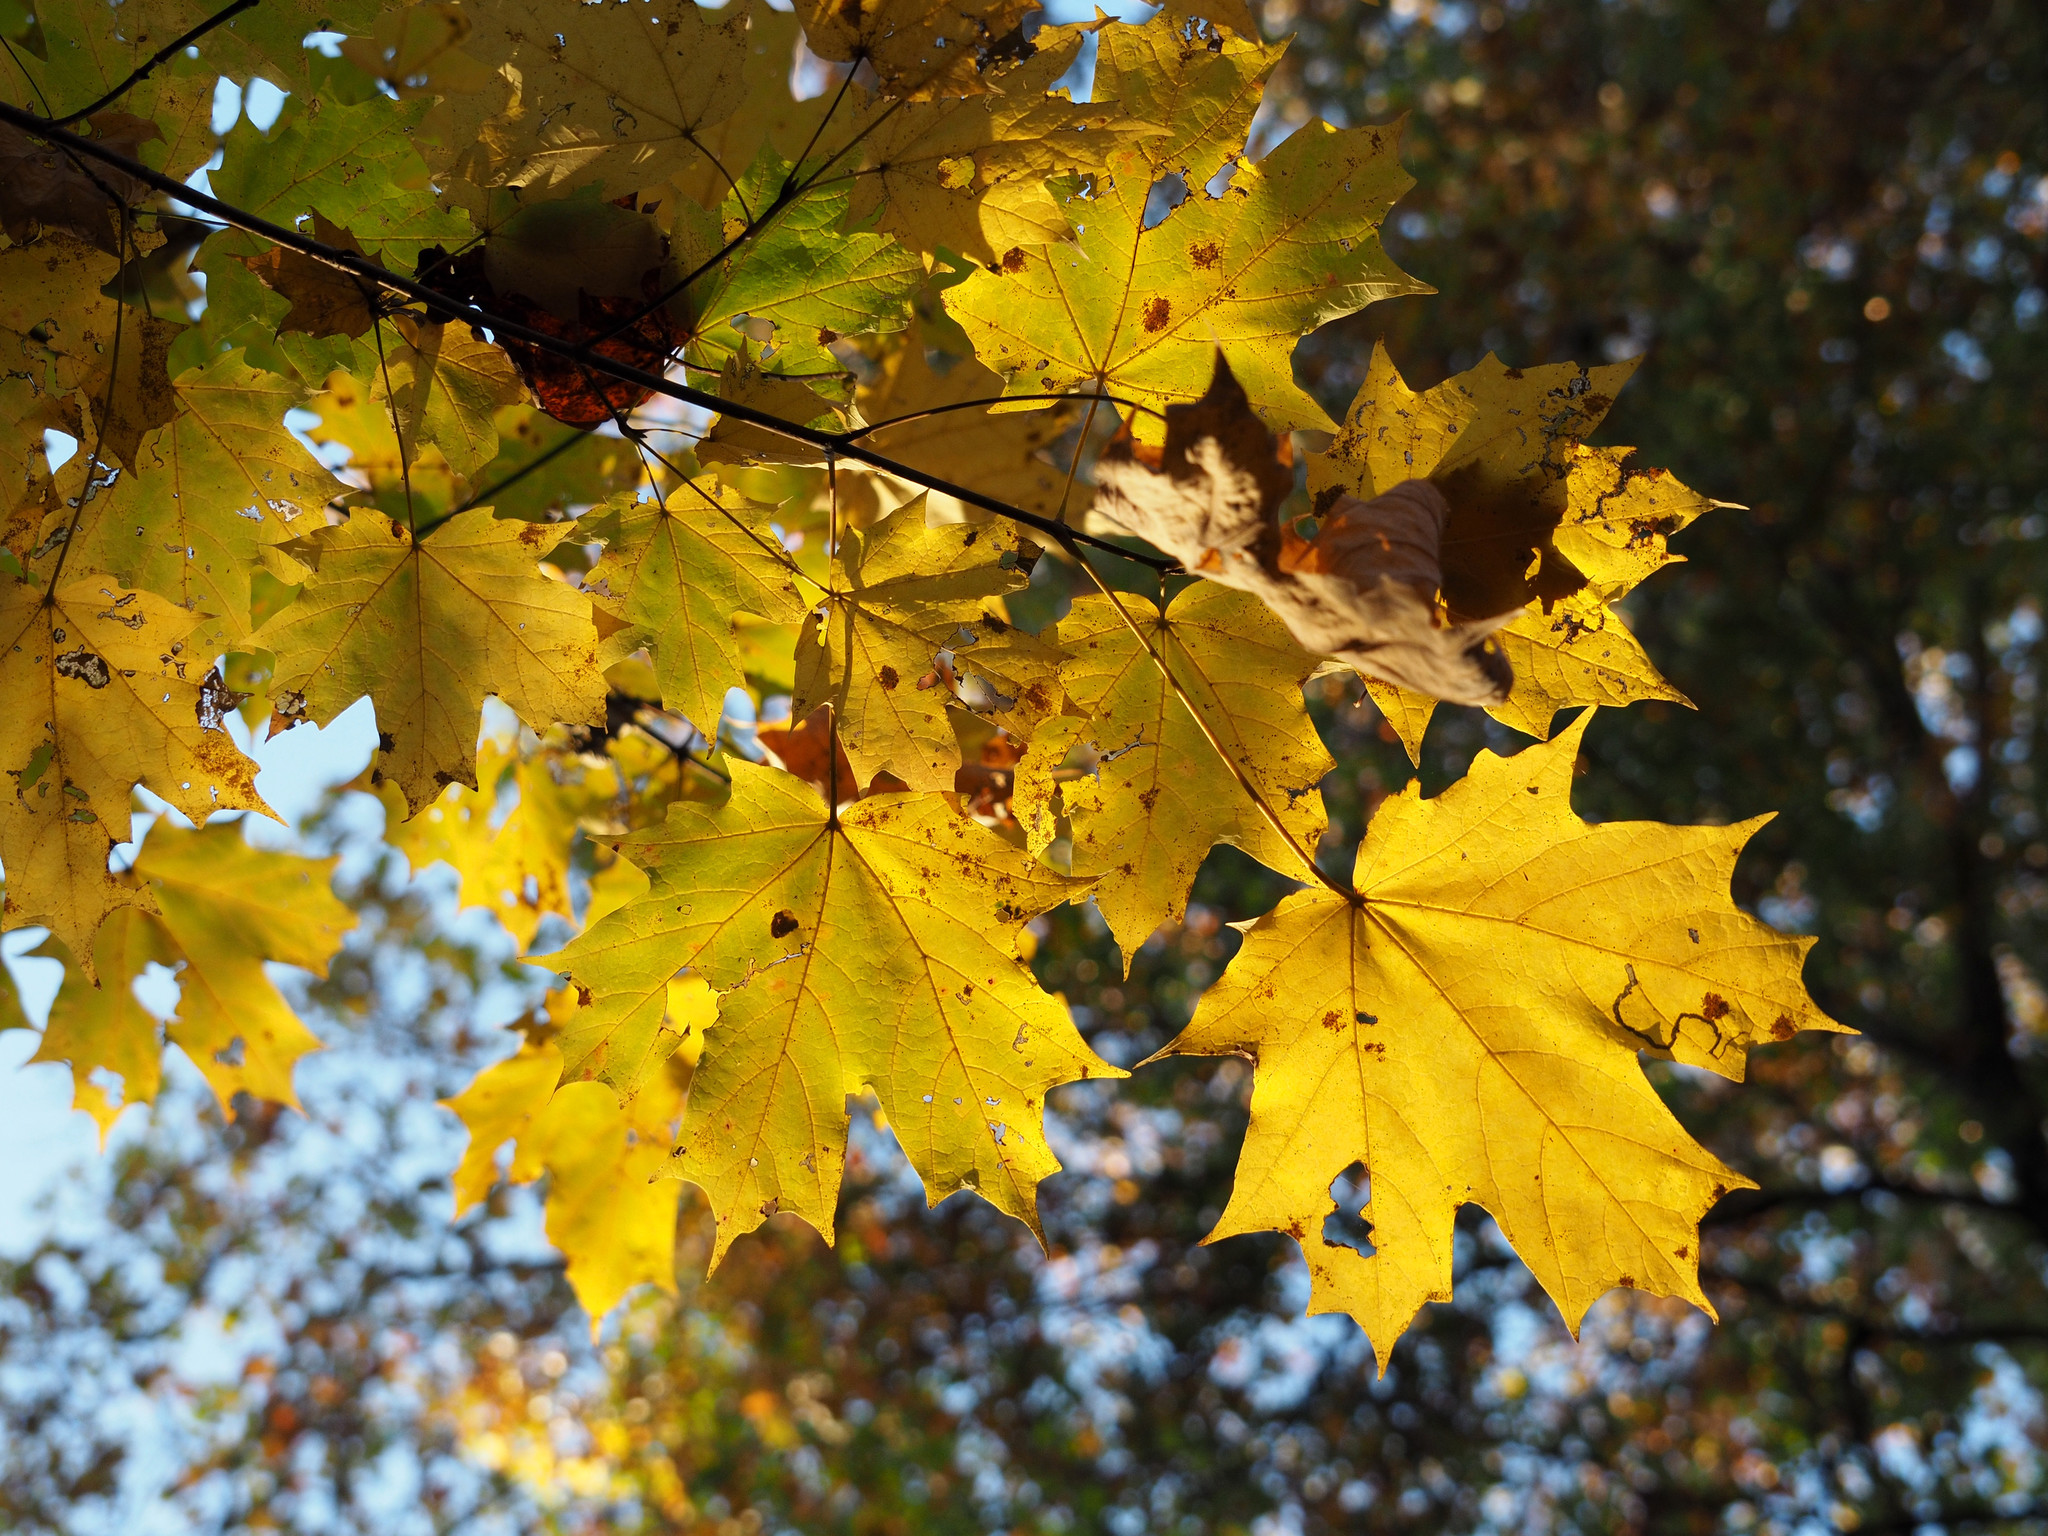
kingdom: Plantae
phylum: Tracheophyta
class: Magnoliopsida
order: Sapindales
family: Sapindaceae
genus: Acer
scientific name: Acer saccharum
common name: Sugar maple
